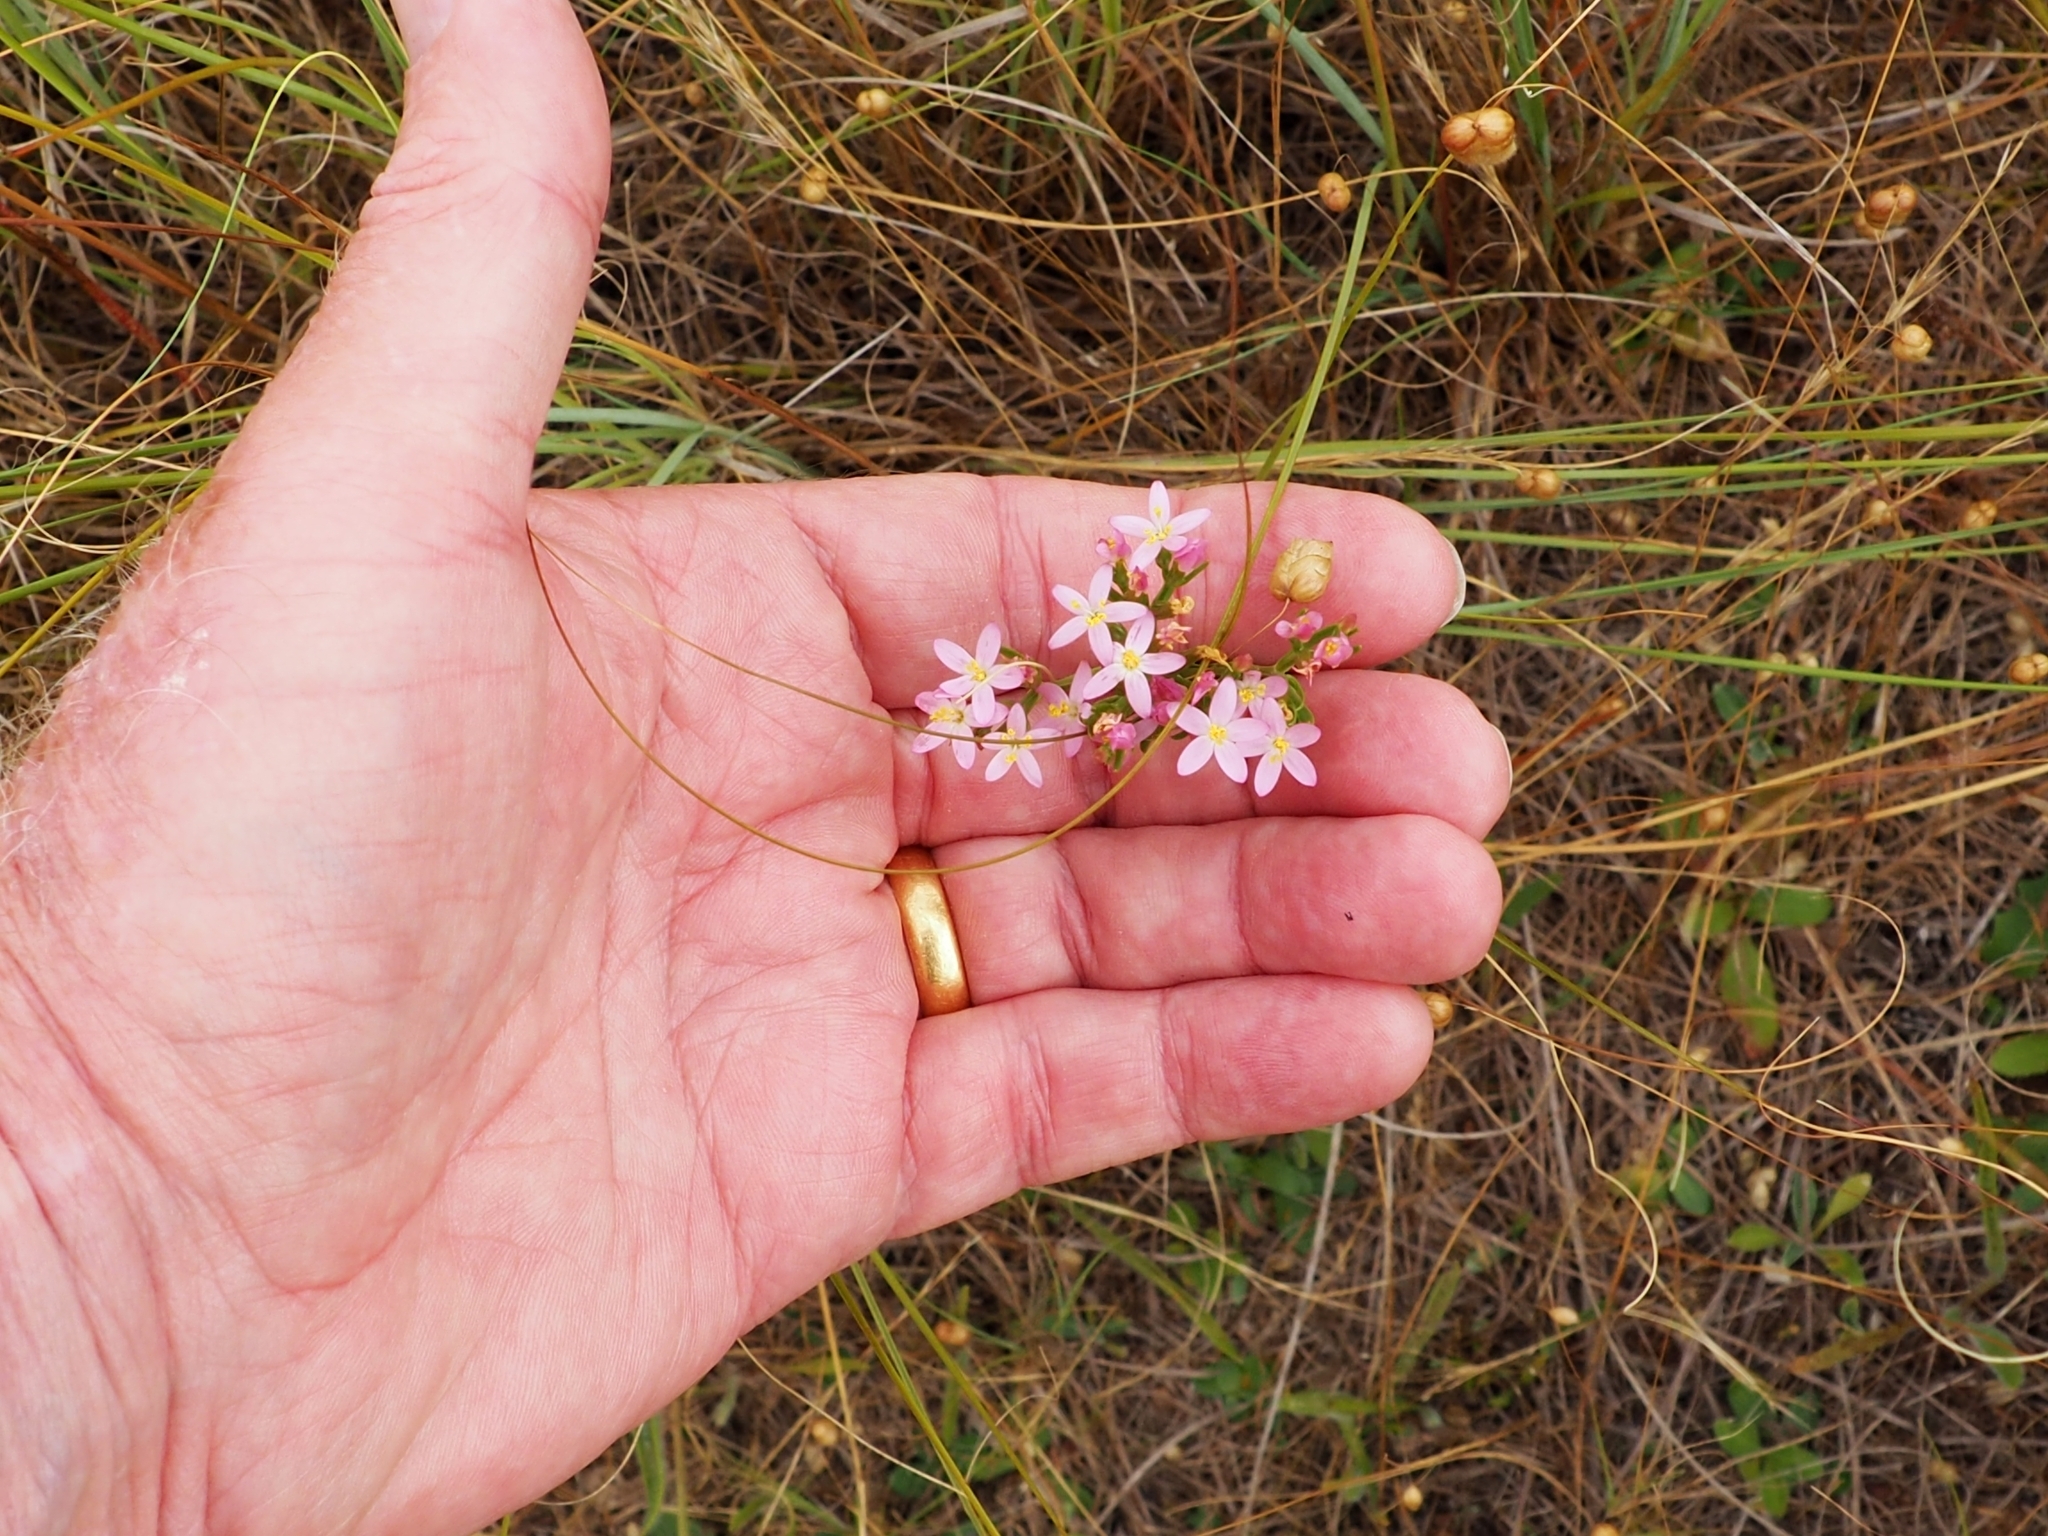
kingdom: Plantae
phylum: Tracheophyta
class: Magnoliopsida
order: Gentianales
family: Gentianaceae
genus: Centaurium
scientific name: Centaurium erythraea
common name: Common centaury
